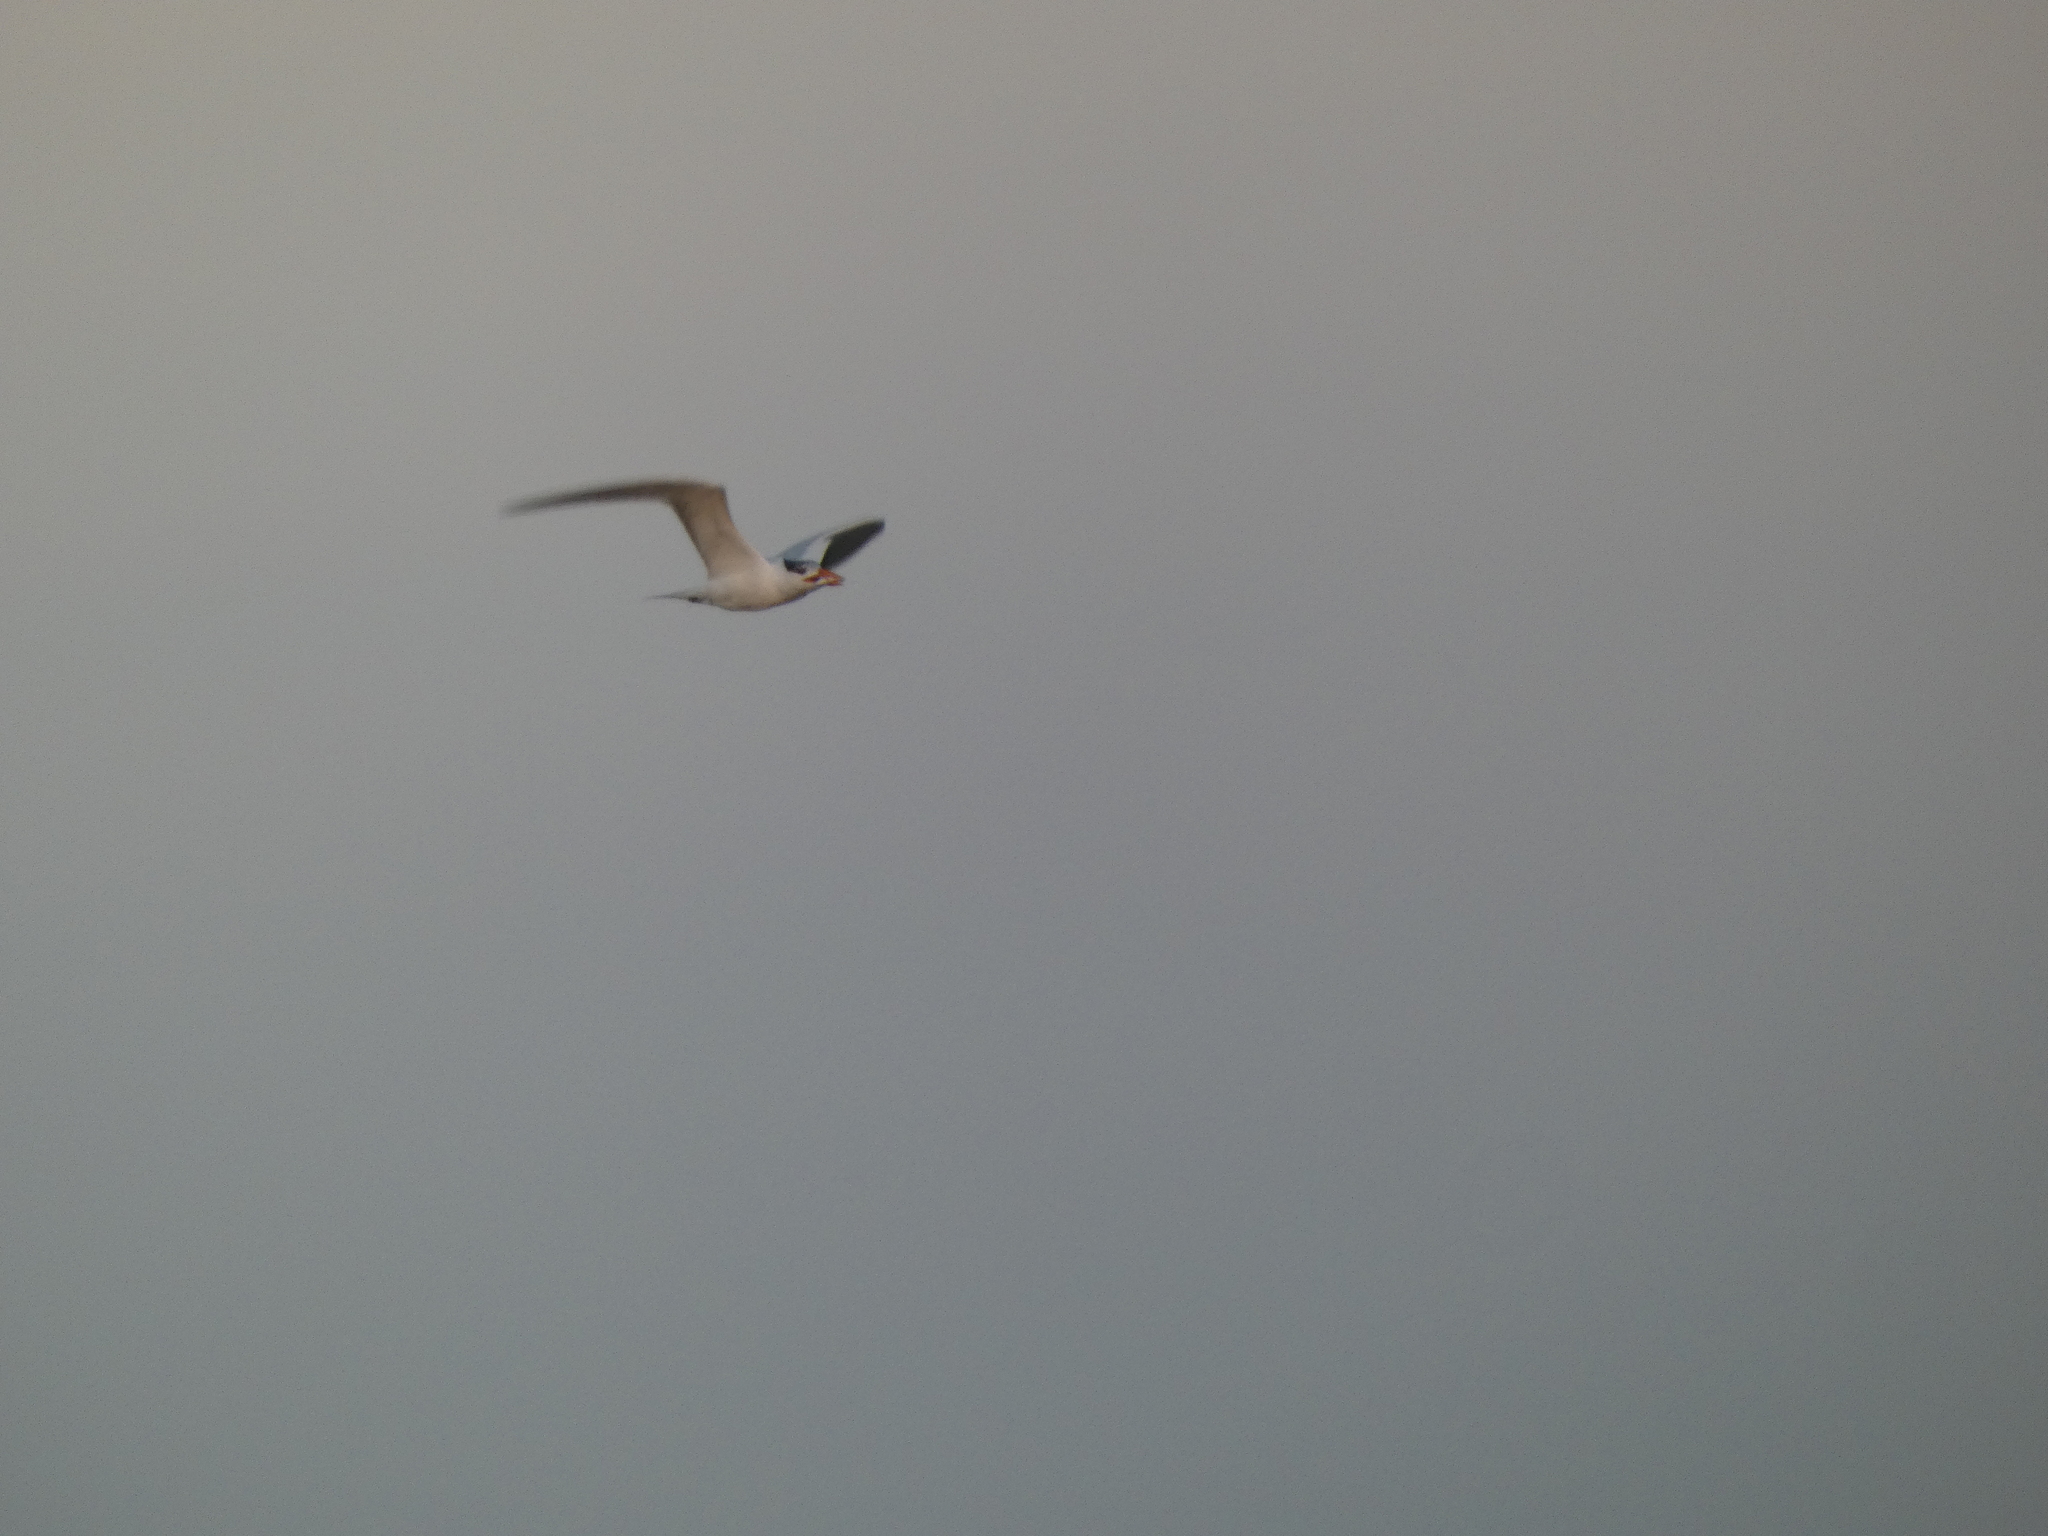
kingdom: Animalia
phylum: Chordata
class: Aves
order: Charadriiformes
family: Laridae
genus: Thalasseus
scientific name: Thalasseus maximus
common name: Royal tern
